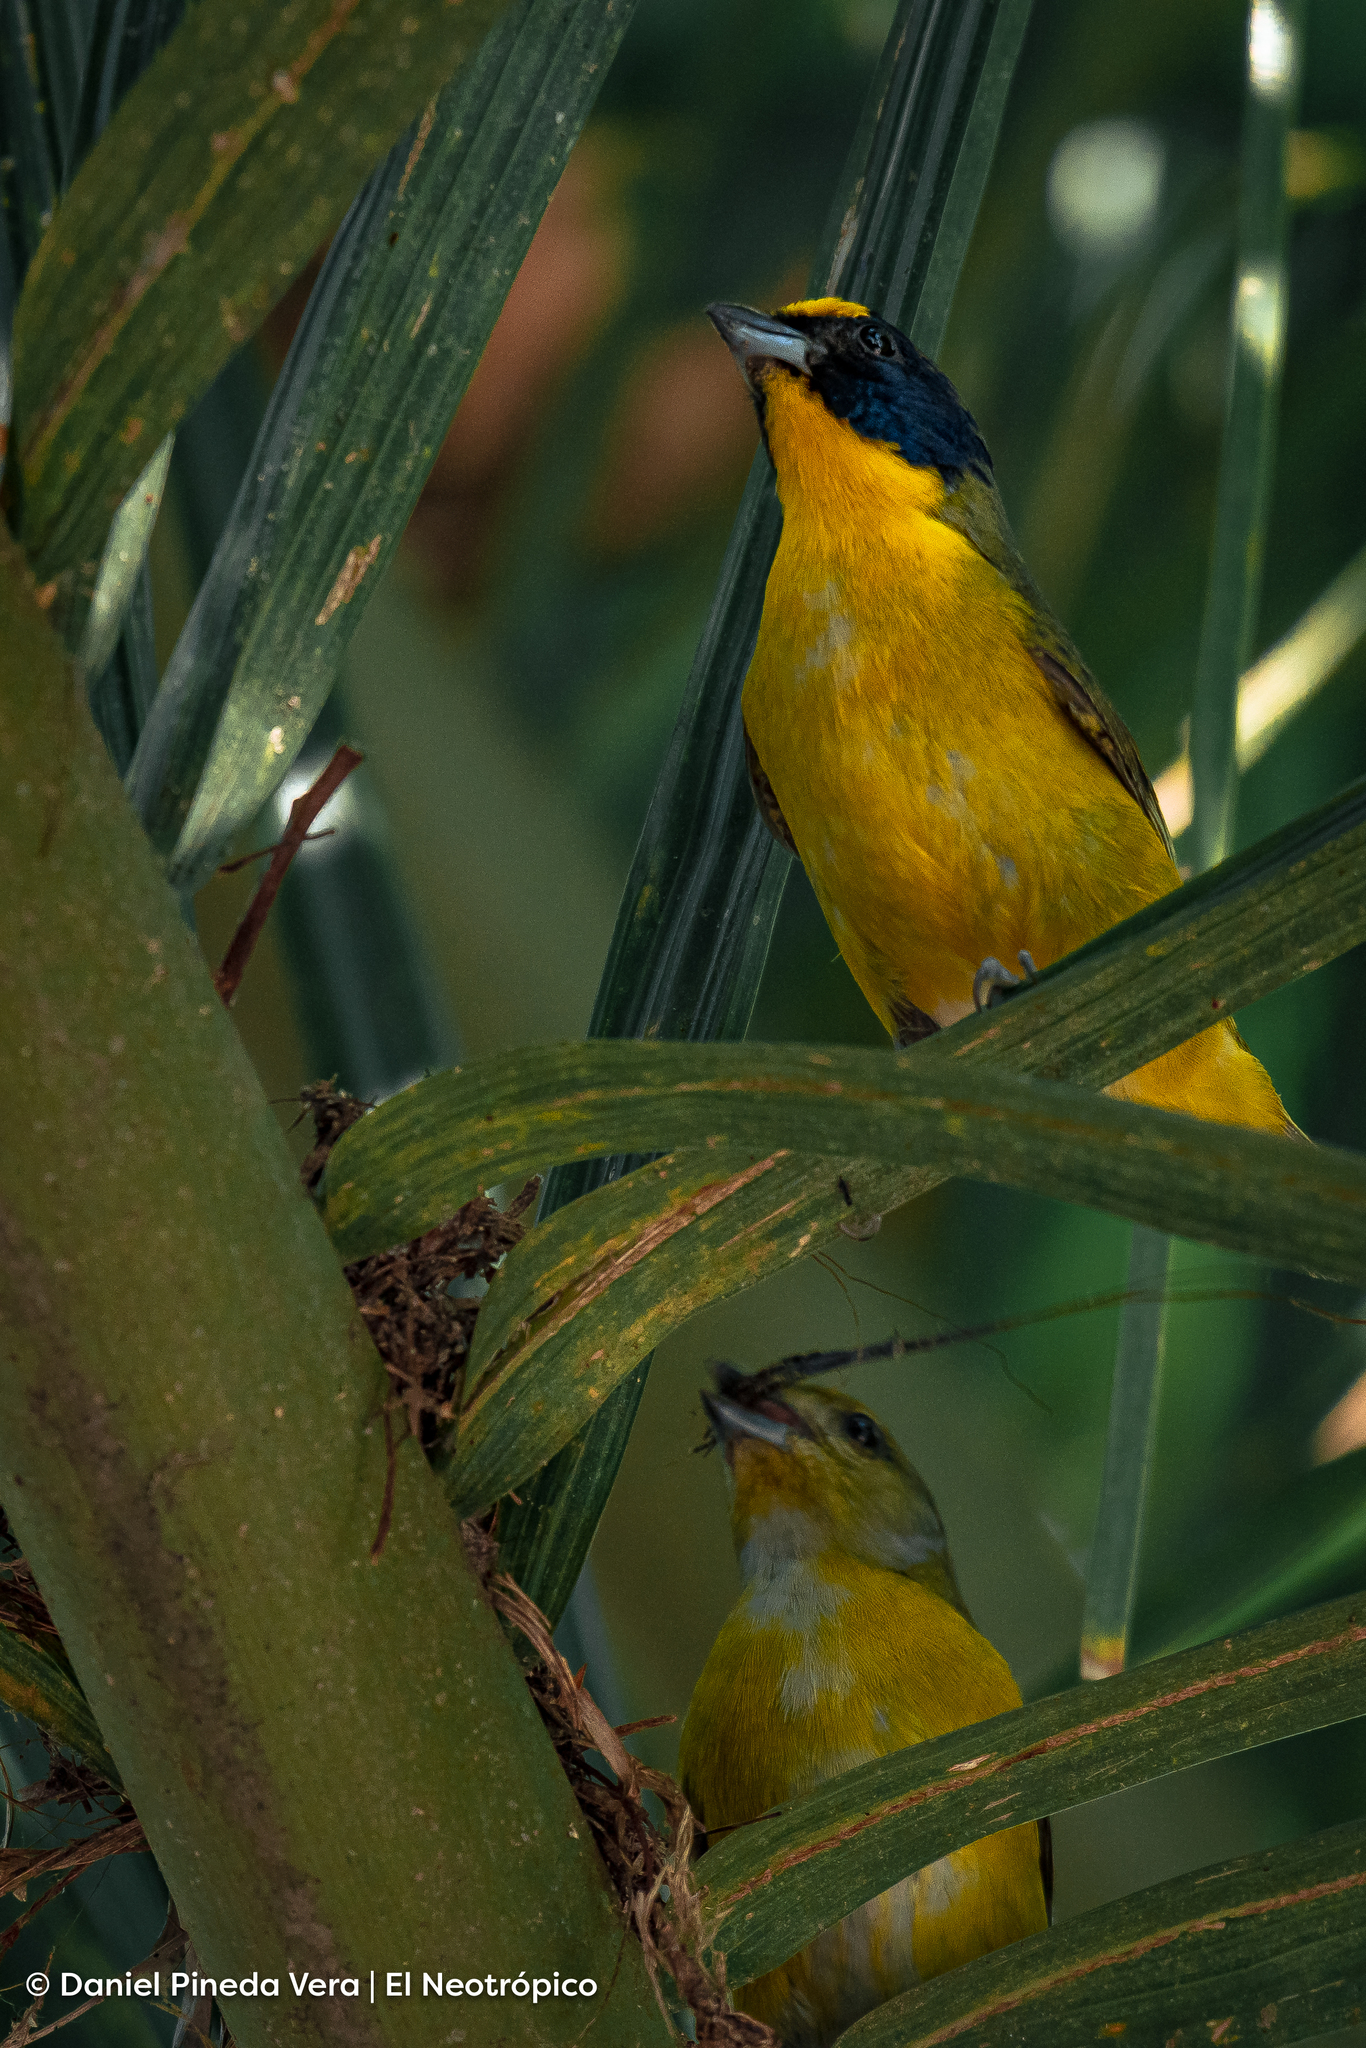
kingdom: Animalia
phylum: Chordata
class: Aves
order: Passeriformes
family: Fringillidae
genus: Euphonia
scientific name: Euphonia hirundinacea
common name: Yellow-throated euphonia
